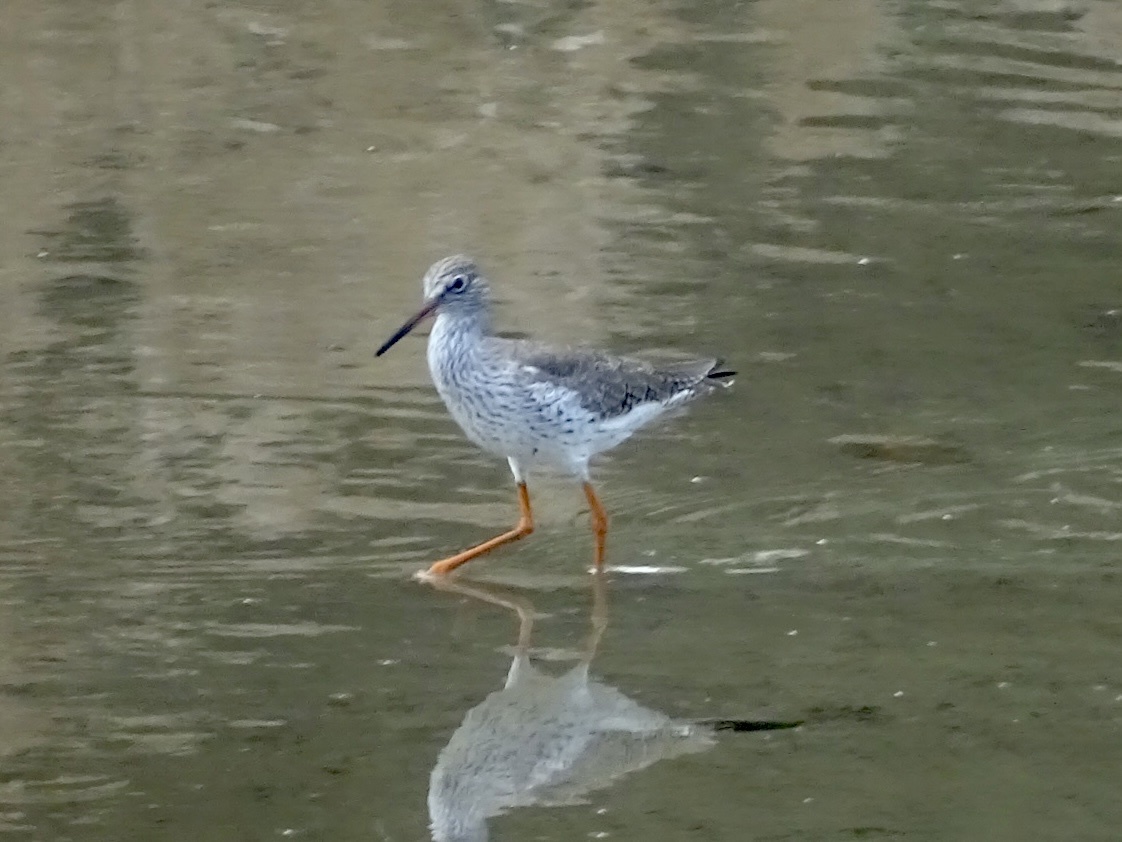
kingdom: Animalia
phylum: Chordata
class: Aves
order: Charadriiformes
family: Scolopacidae
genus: Tringa
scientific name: Tringa totanus
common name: Common redshank
